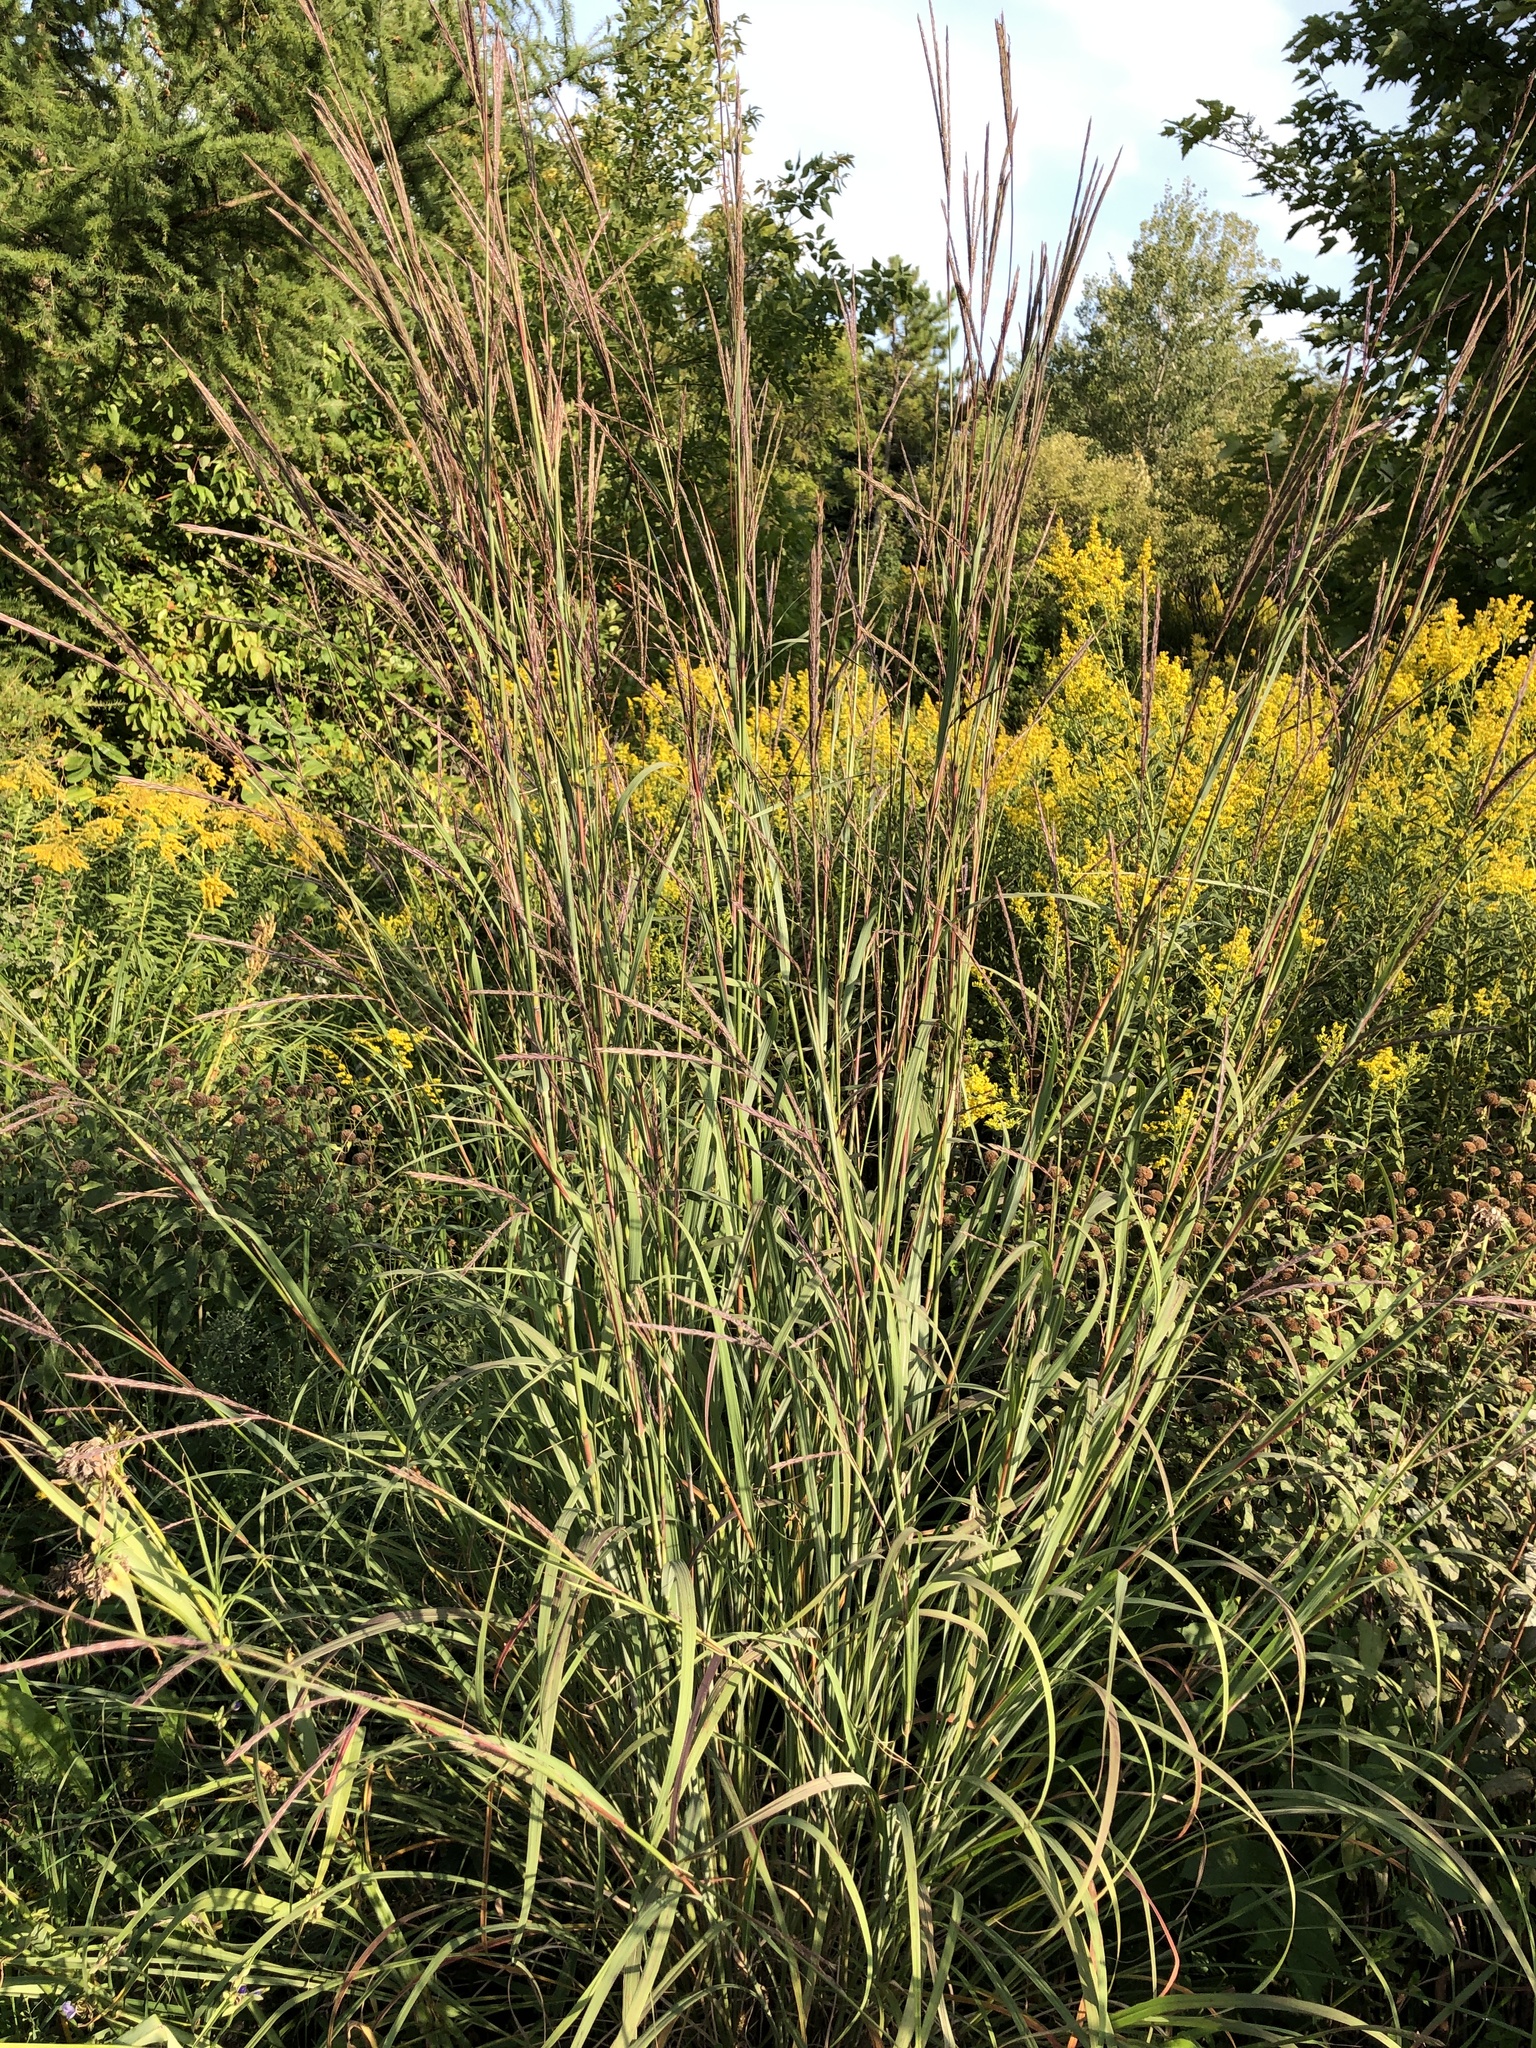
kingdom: Plantae
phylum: Tracheophyta
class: Liliopsida
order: Poales
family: Poaceae
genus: Andropogon
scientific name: Andropogon gerardi
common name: Big bluestem
